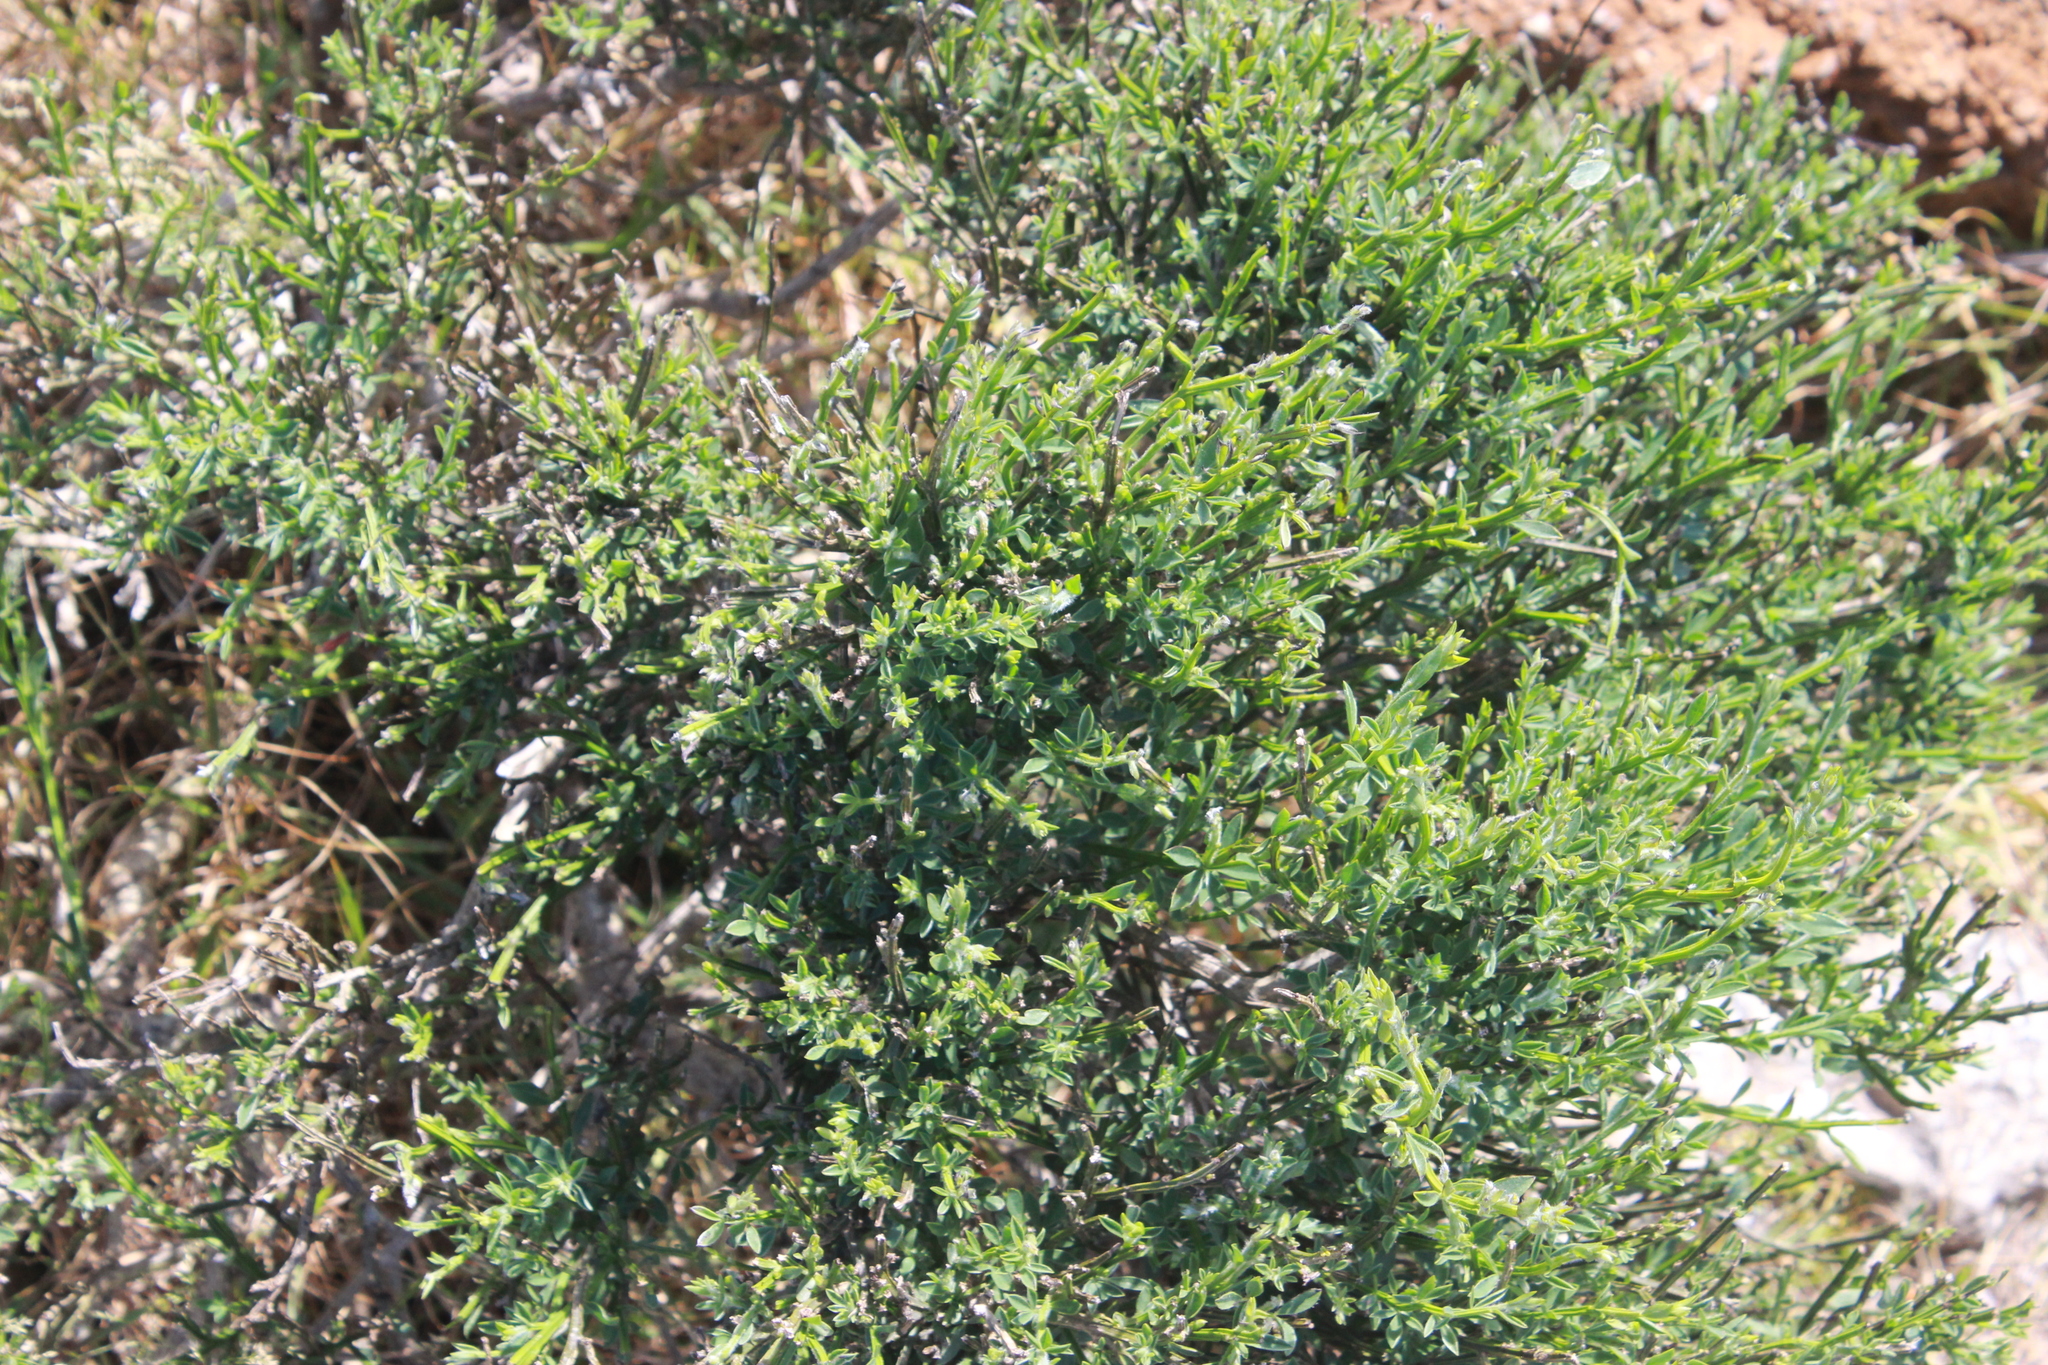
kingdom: Plantae
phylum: Tracheophyta
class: Magnoliopsida
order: Fabales
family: Fabaceae
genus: Cytisus
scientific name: Cytisus scoparius
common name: Scotch broom
